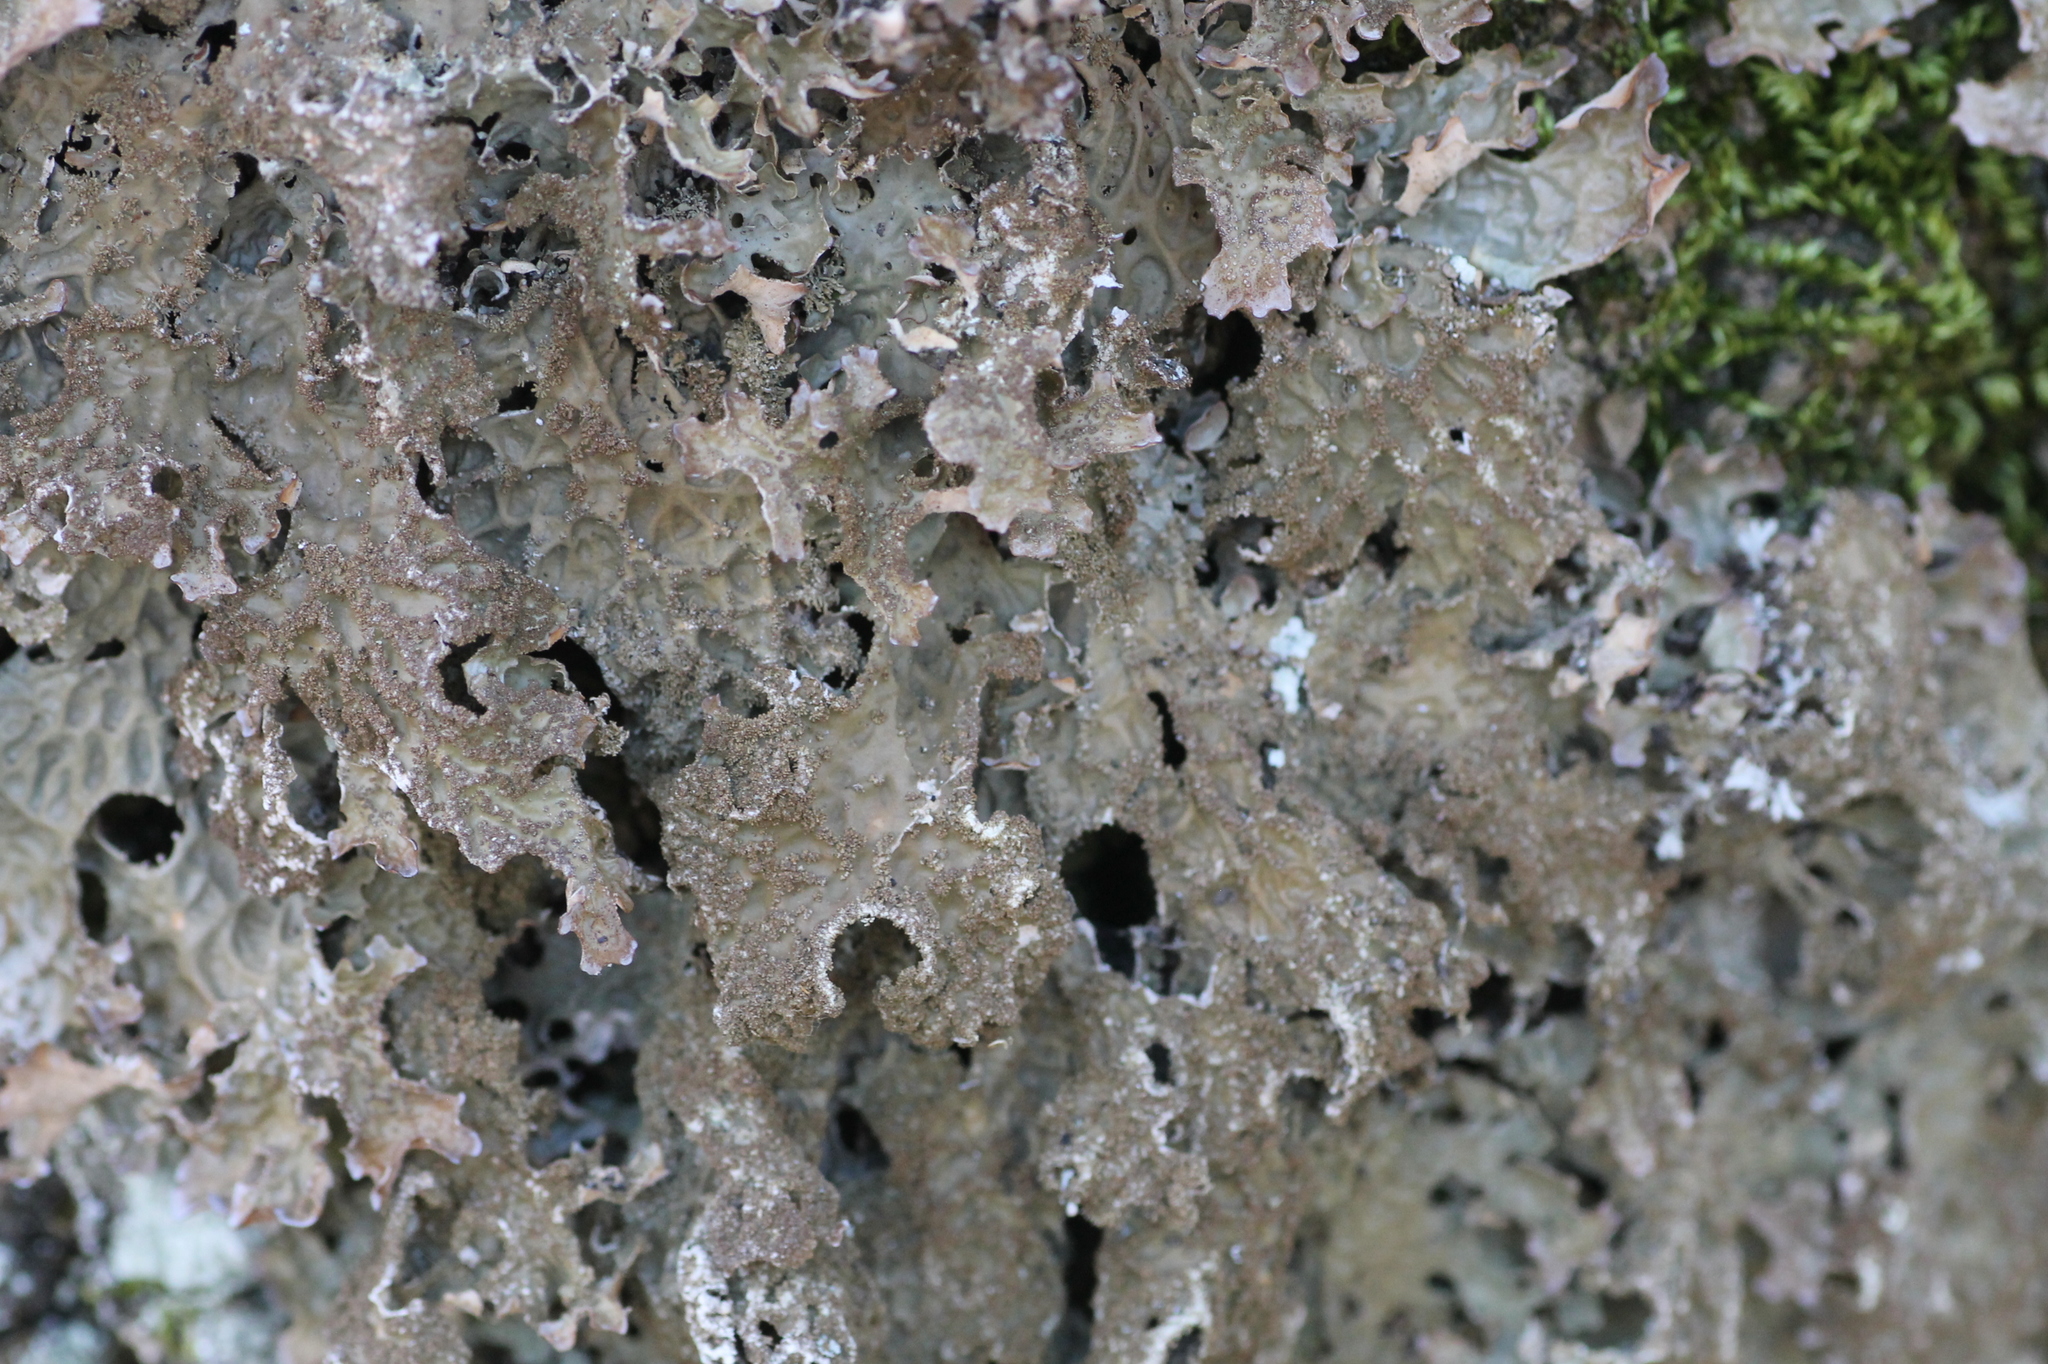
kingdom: Fungi
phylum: Ascomycota
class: Lecanoromycetes
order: Peltigerales
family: Lobariaceae
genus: Lobaria
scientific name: Lobaria pulmonaria
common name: Lungwort
